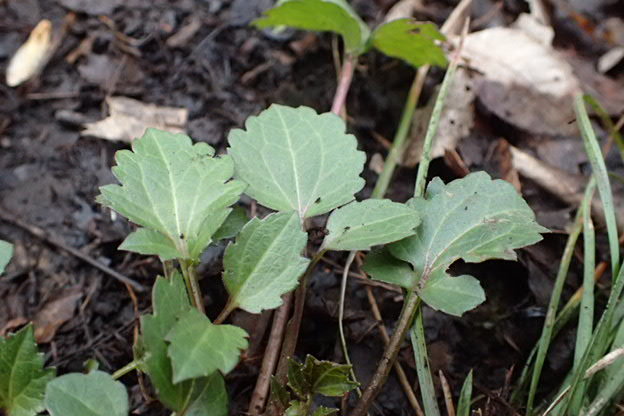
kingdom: Plantae
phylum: Tracheophyta
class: Magnoliopsida
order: Asterales
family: Asteraceae
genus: Rudbeckia
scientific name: Rudbeckia laciniata
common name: Coneflower
